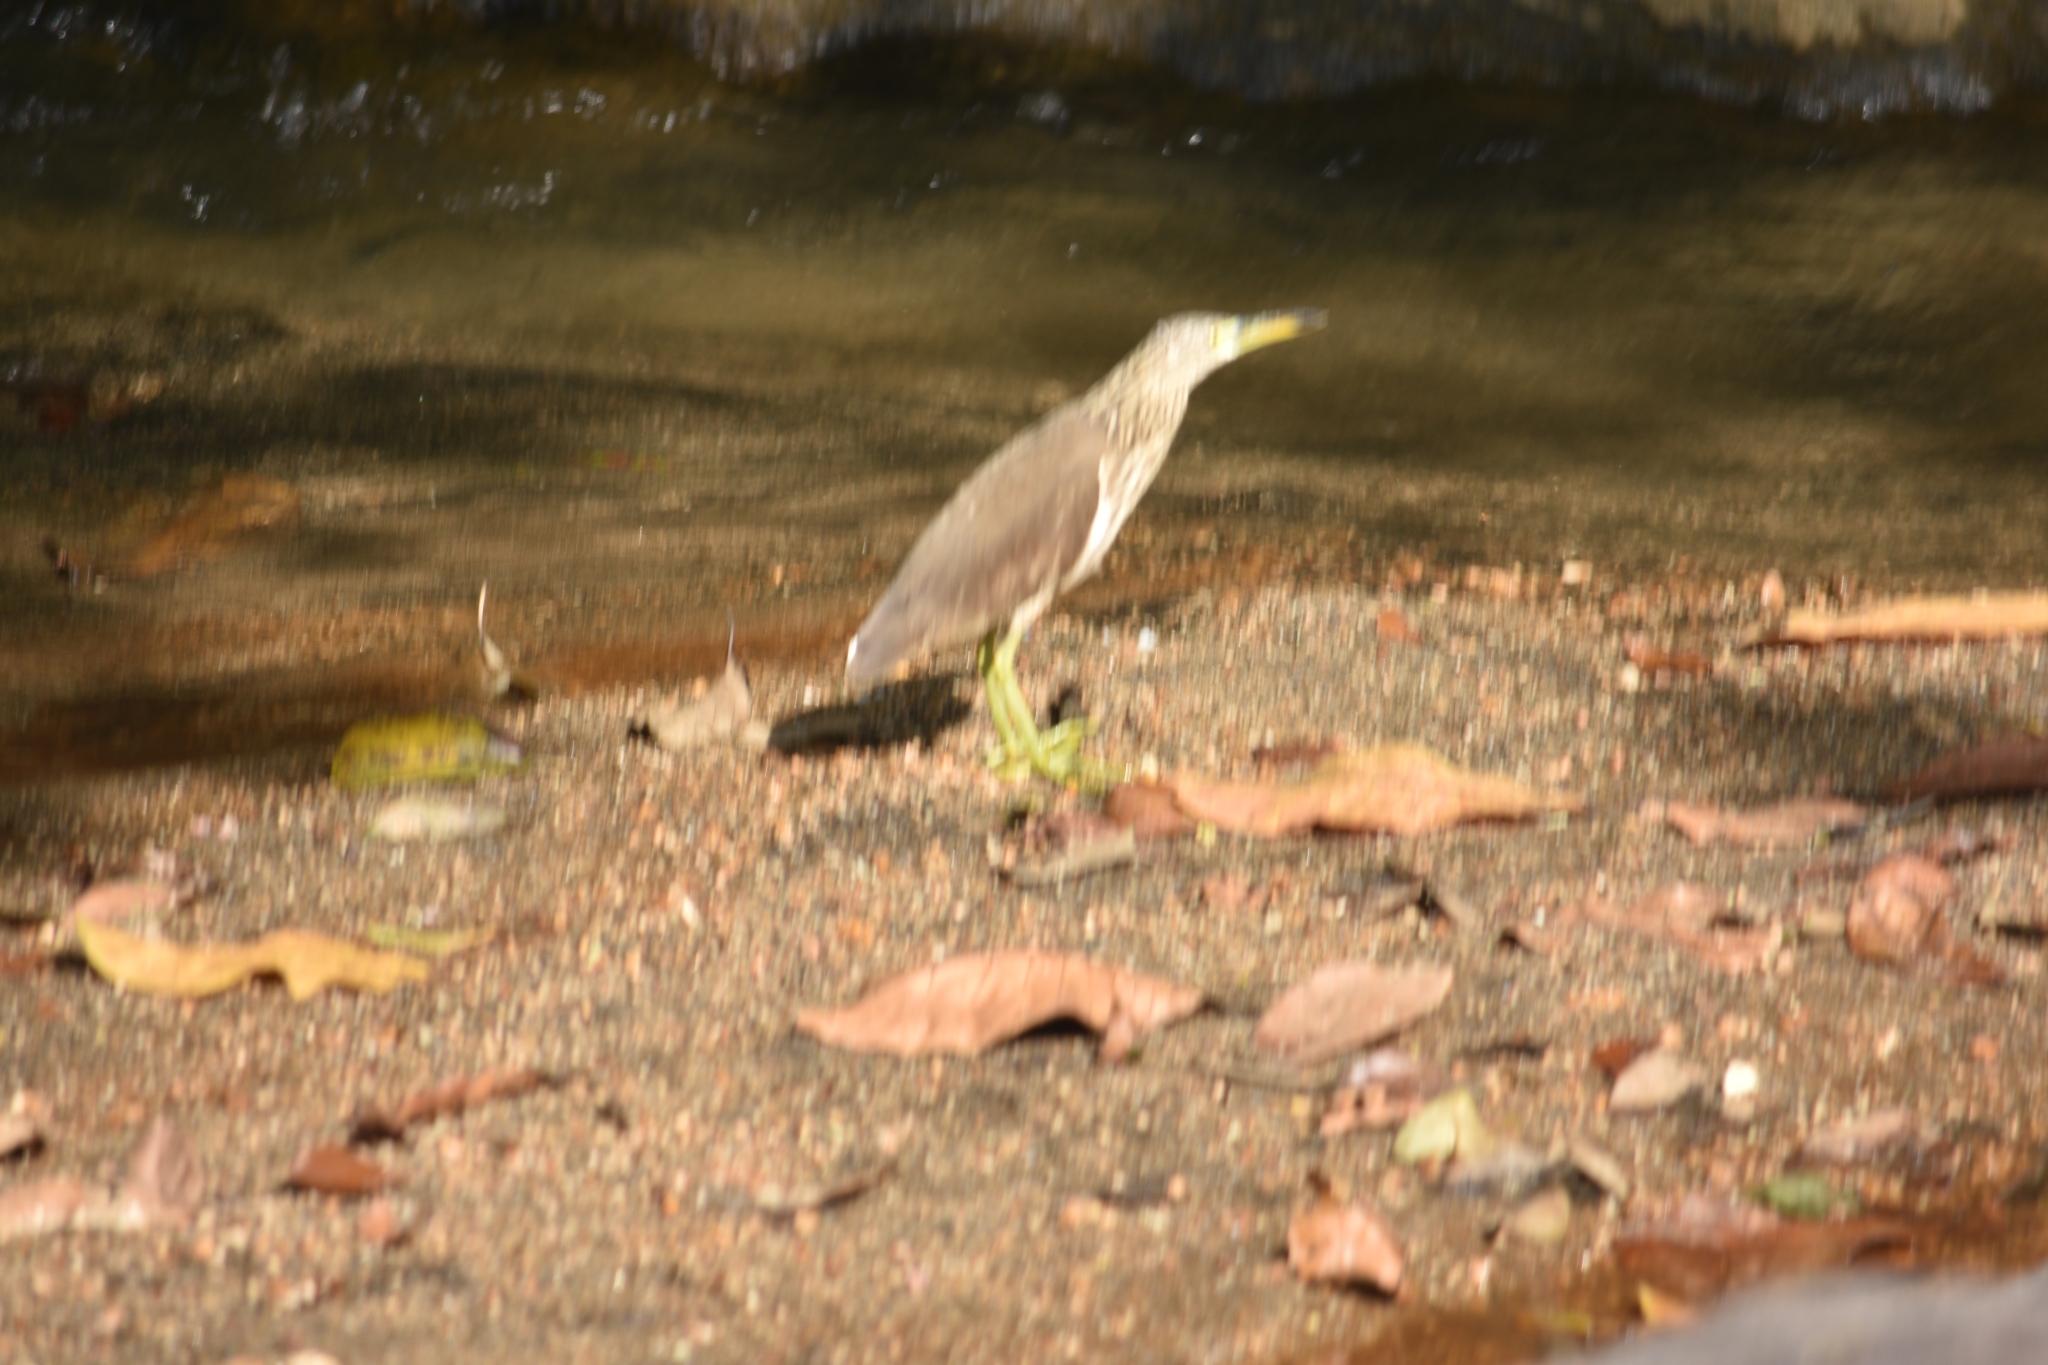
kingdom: Animalia
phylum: Chordata
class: Aves
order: Pelecaniformes
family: Ardeidae
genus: Ardeola
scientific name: Ardeola grayii
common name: Indian pond heron
